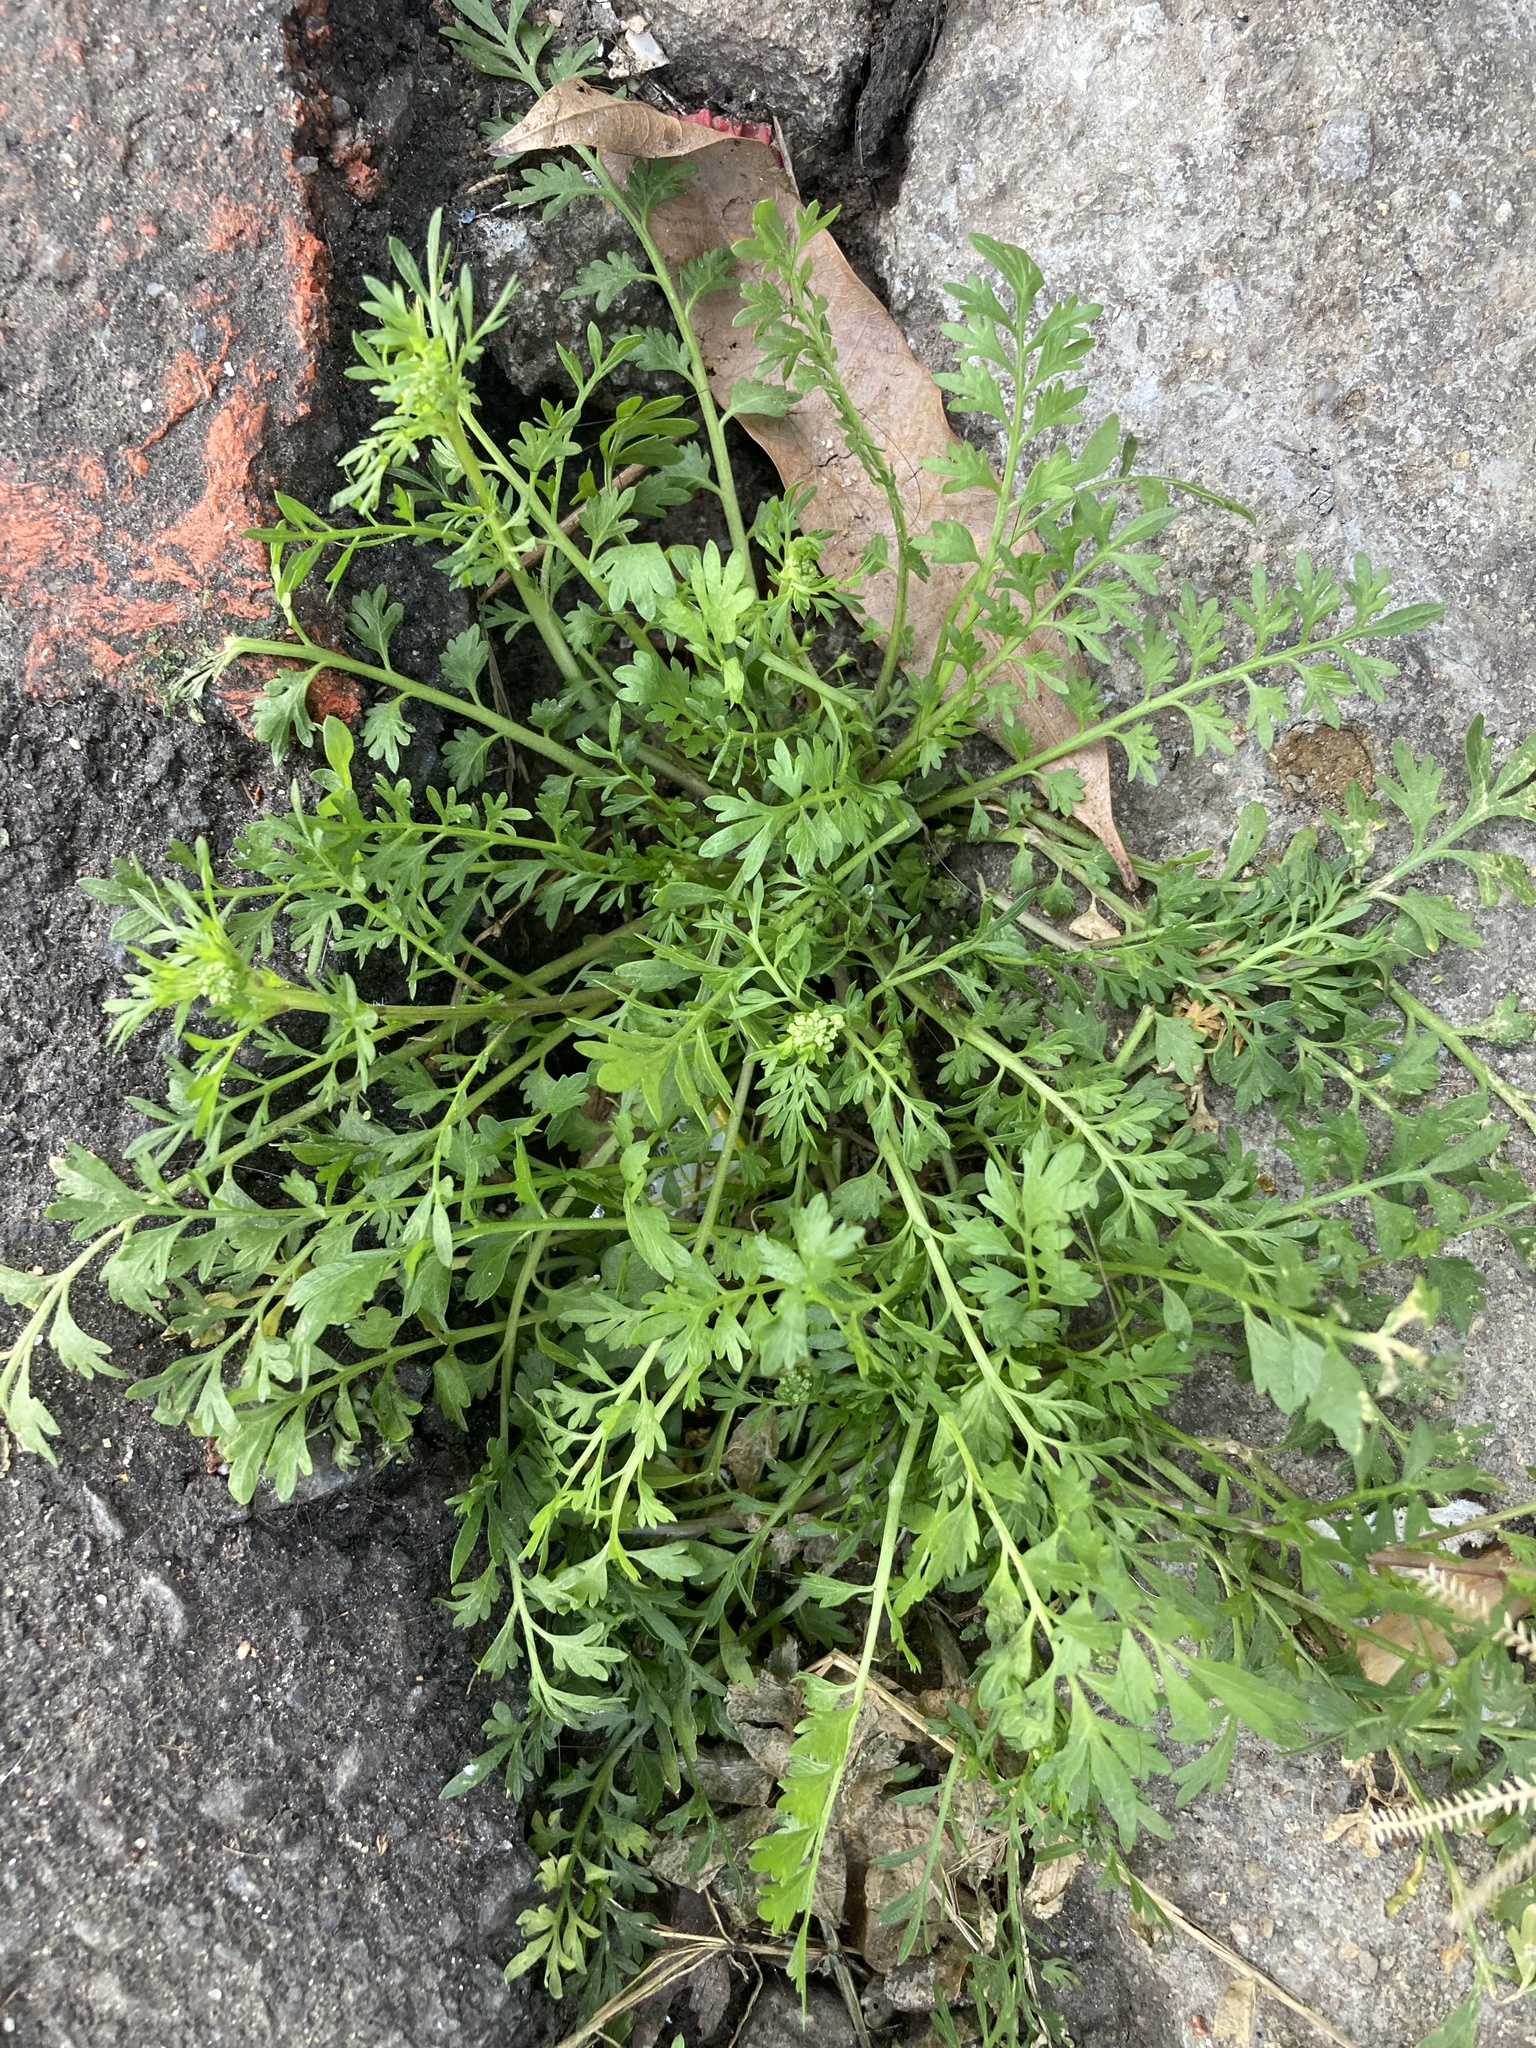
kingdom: Plantae
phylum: Tracheophyta
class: Magnoliopsida
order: Brassicales
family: Brassicaceae
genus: Lepidium
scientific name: Lepidium didymum
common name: Lesser swinecress
